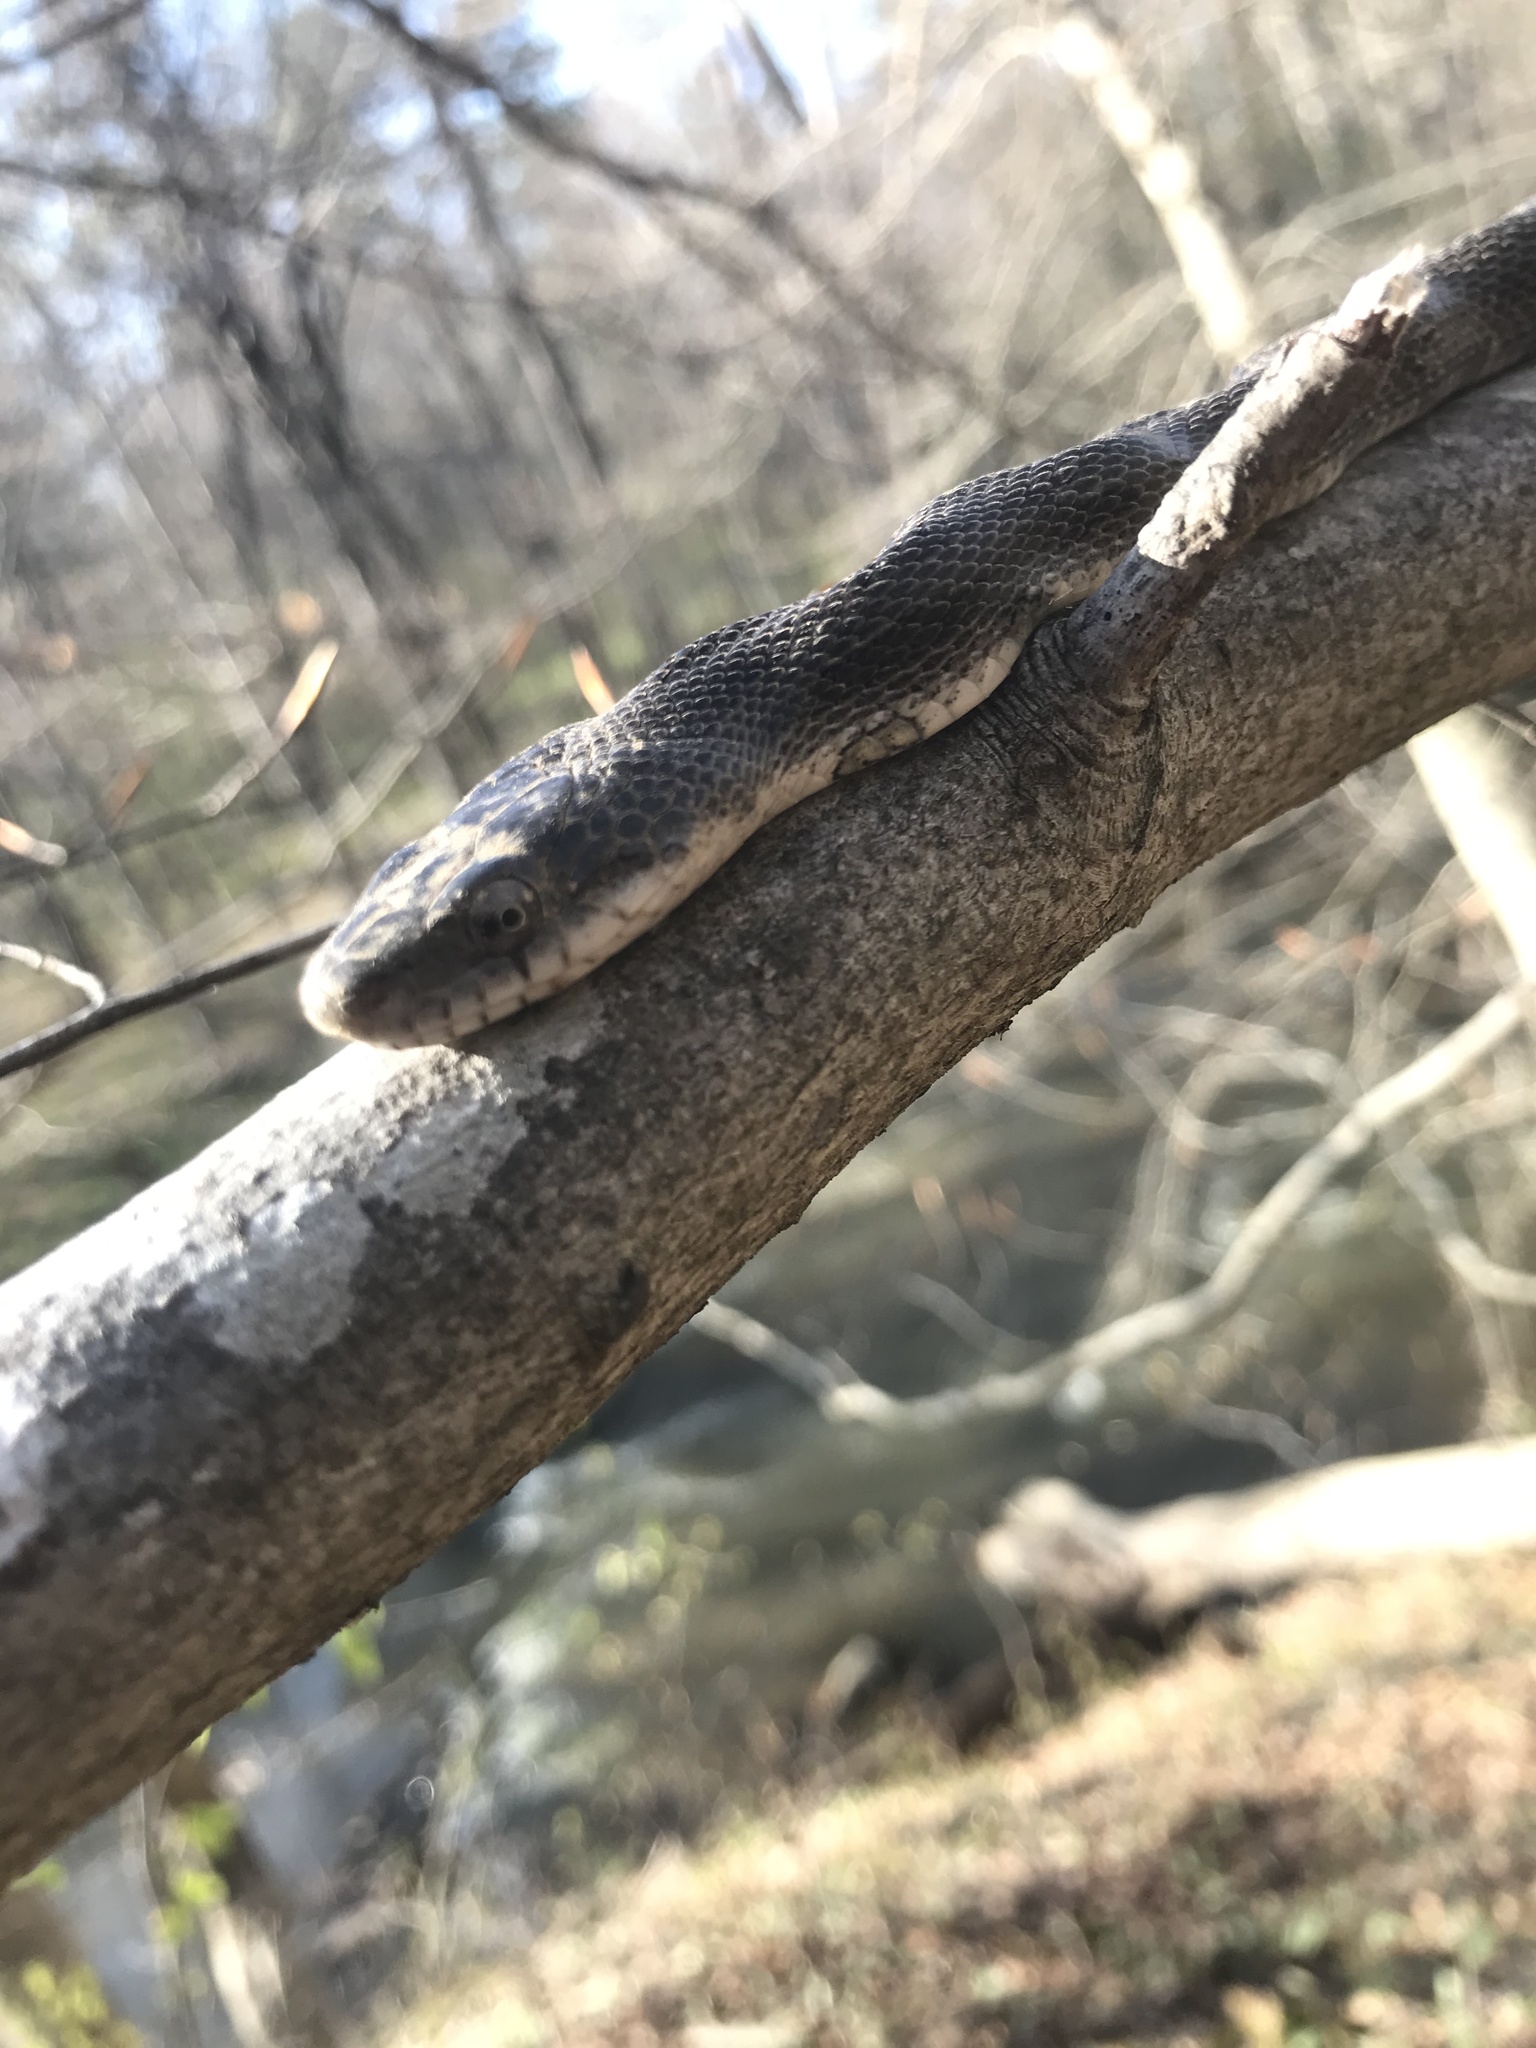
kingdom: Animalia
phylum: Chordata
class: Squamata
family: Colubridae
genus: Pantherophis
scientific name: Pantherophis alleghaniensis
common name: Eastern rat snake
